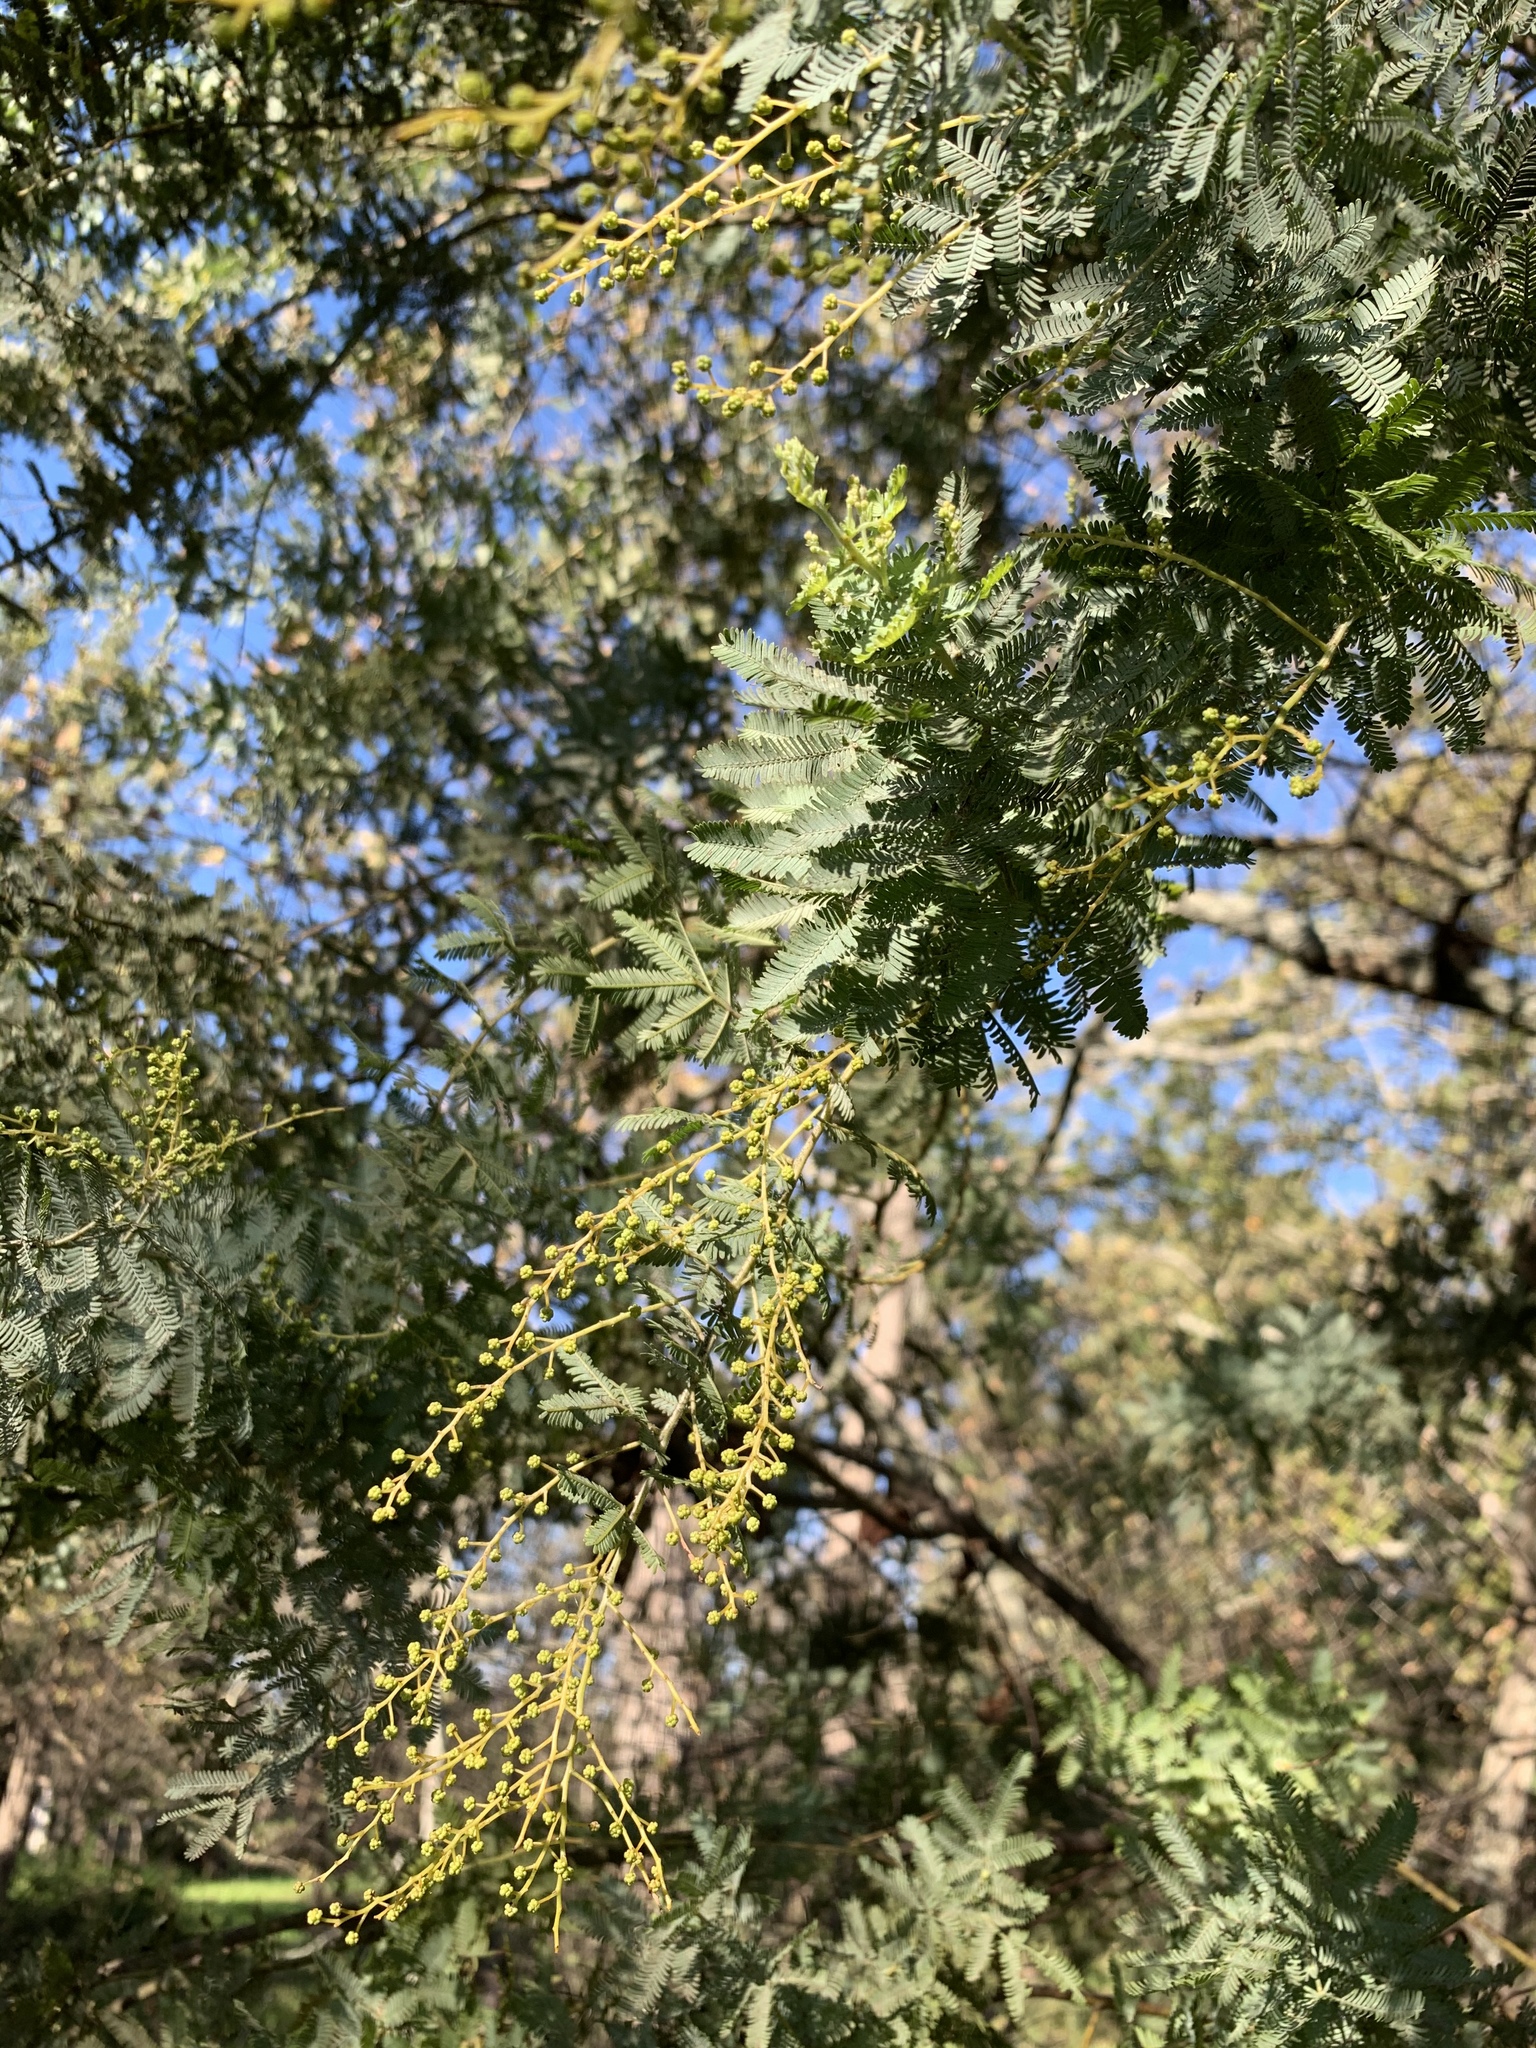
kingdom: Plantae
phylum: Tracheophyta
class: Magnoliopsida
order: Fabales
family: Fabaceae
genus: Acacia
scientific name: Acacia baileyana
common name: Cootamundra wattle
